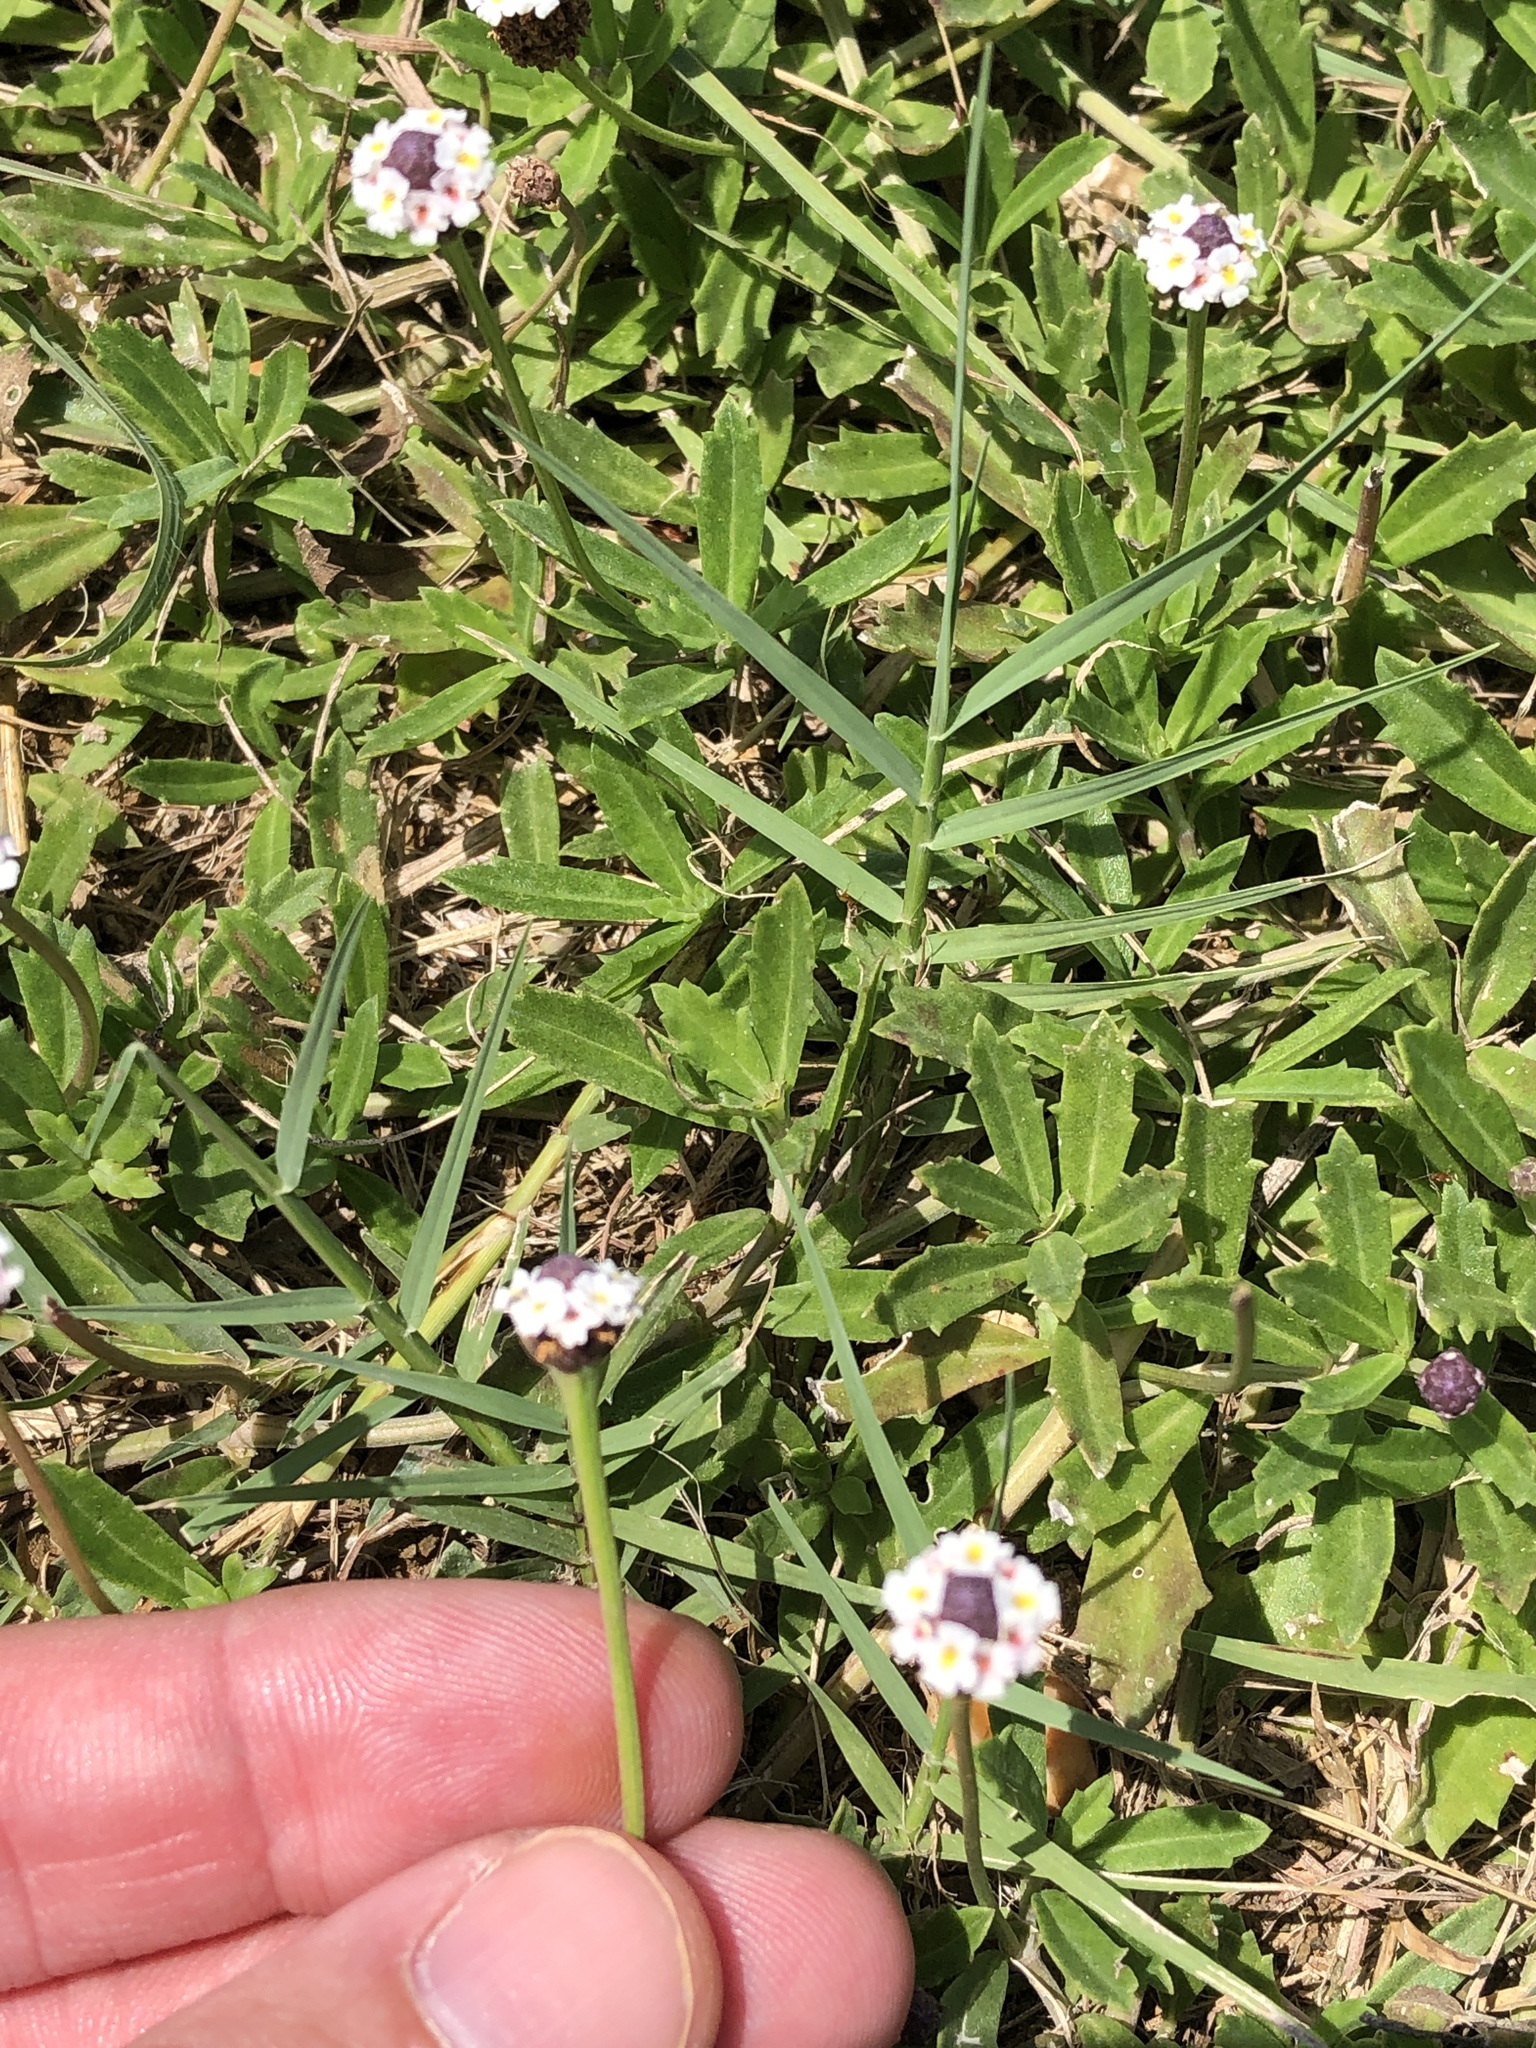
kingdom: Plantae
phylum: Tracheophyta
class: Magnoliopsida
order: Lamiales
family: Verbenaceae
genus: Phyla
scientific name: Phyla nodiflora
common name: Frogfruit
